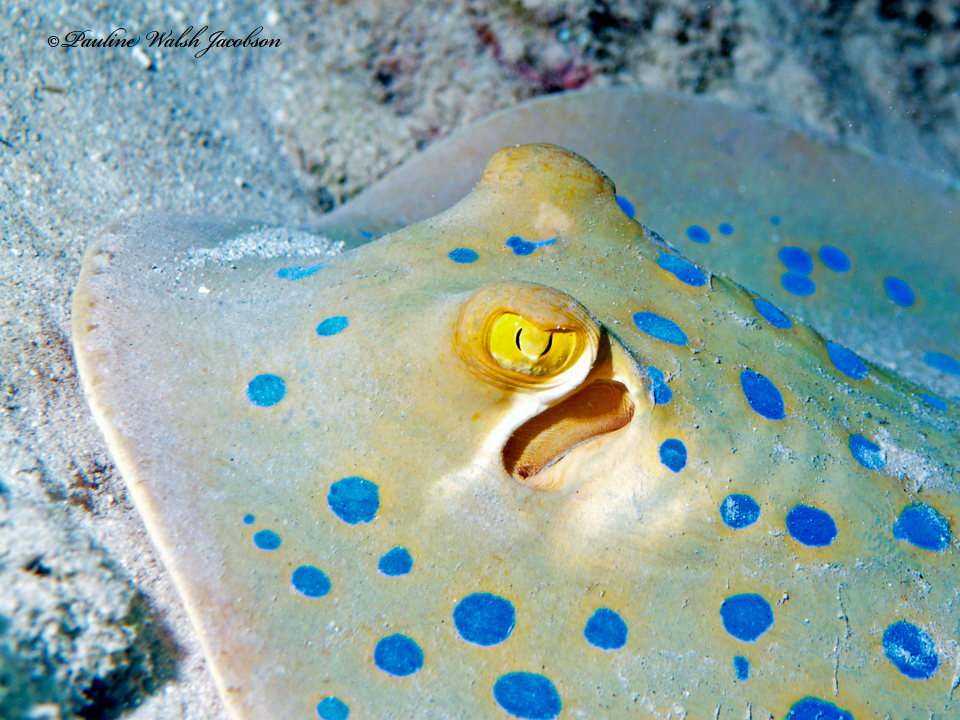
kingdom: Animalia
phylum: Chordata
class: Elasmobranchii
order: Myliobatiformes
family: Dasyatidae
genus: Taeniura
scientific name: Taeniura lymma
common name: Bluespotted ribbontail ray
